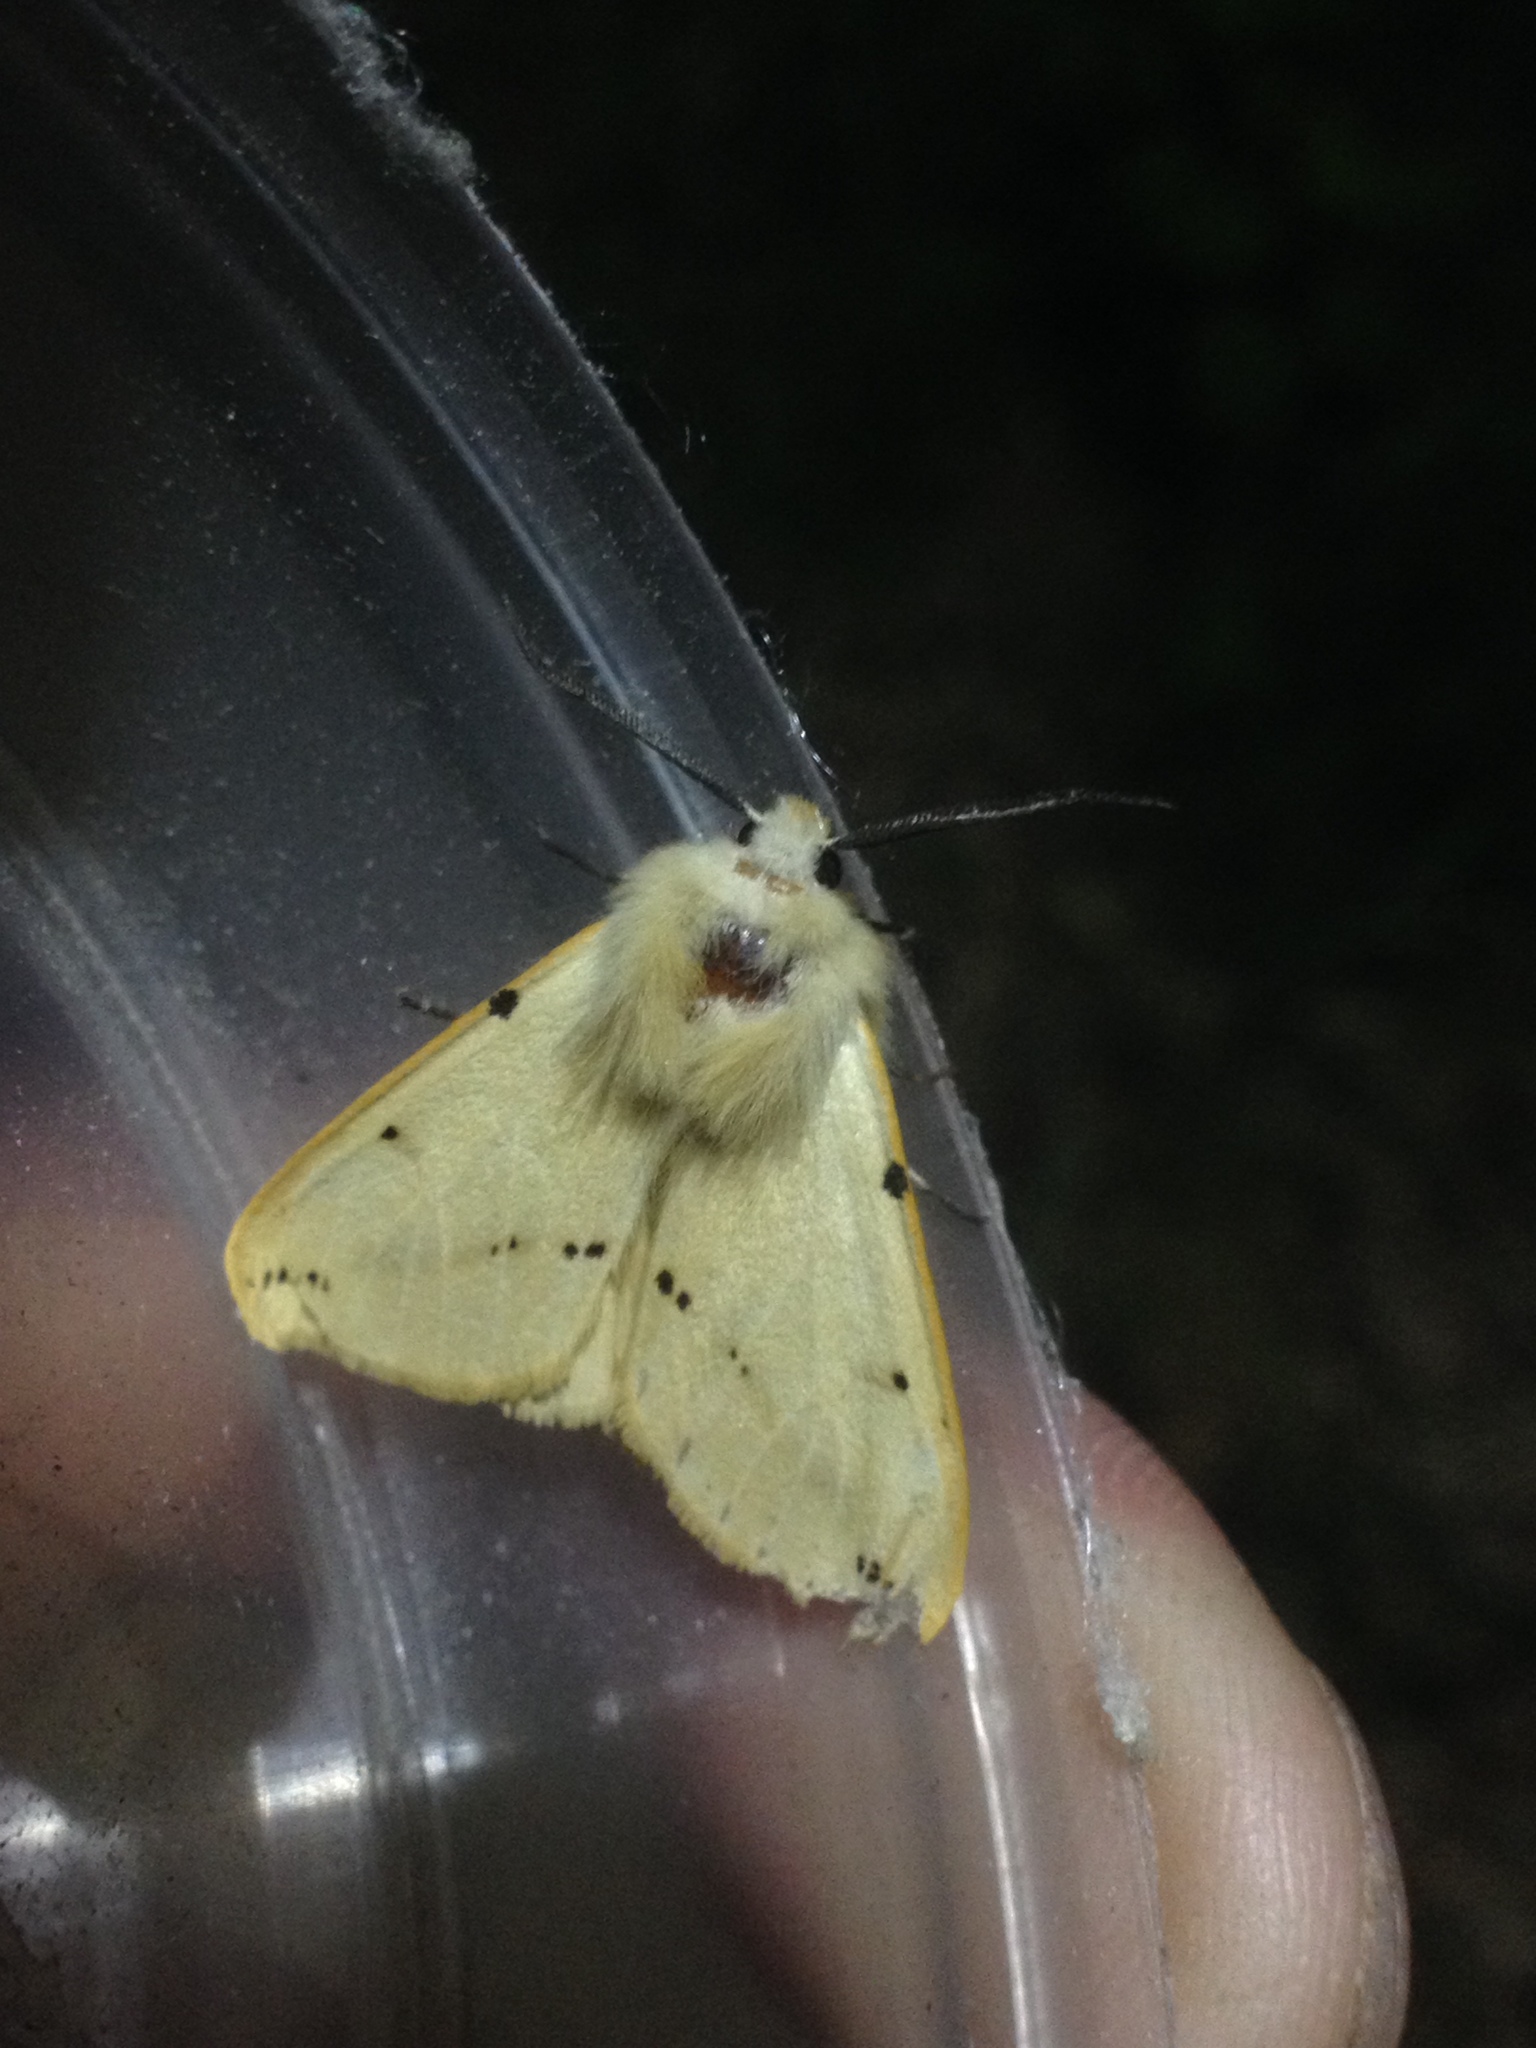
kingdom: Animalia
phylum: Arthropoda
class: Insecta
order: Lepidoptera
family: Erebidae
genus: Spilarctia
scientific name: Spilarctia lutea
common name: Buff ermine
